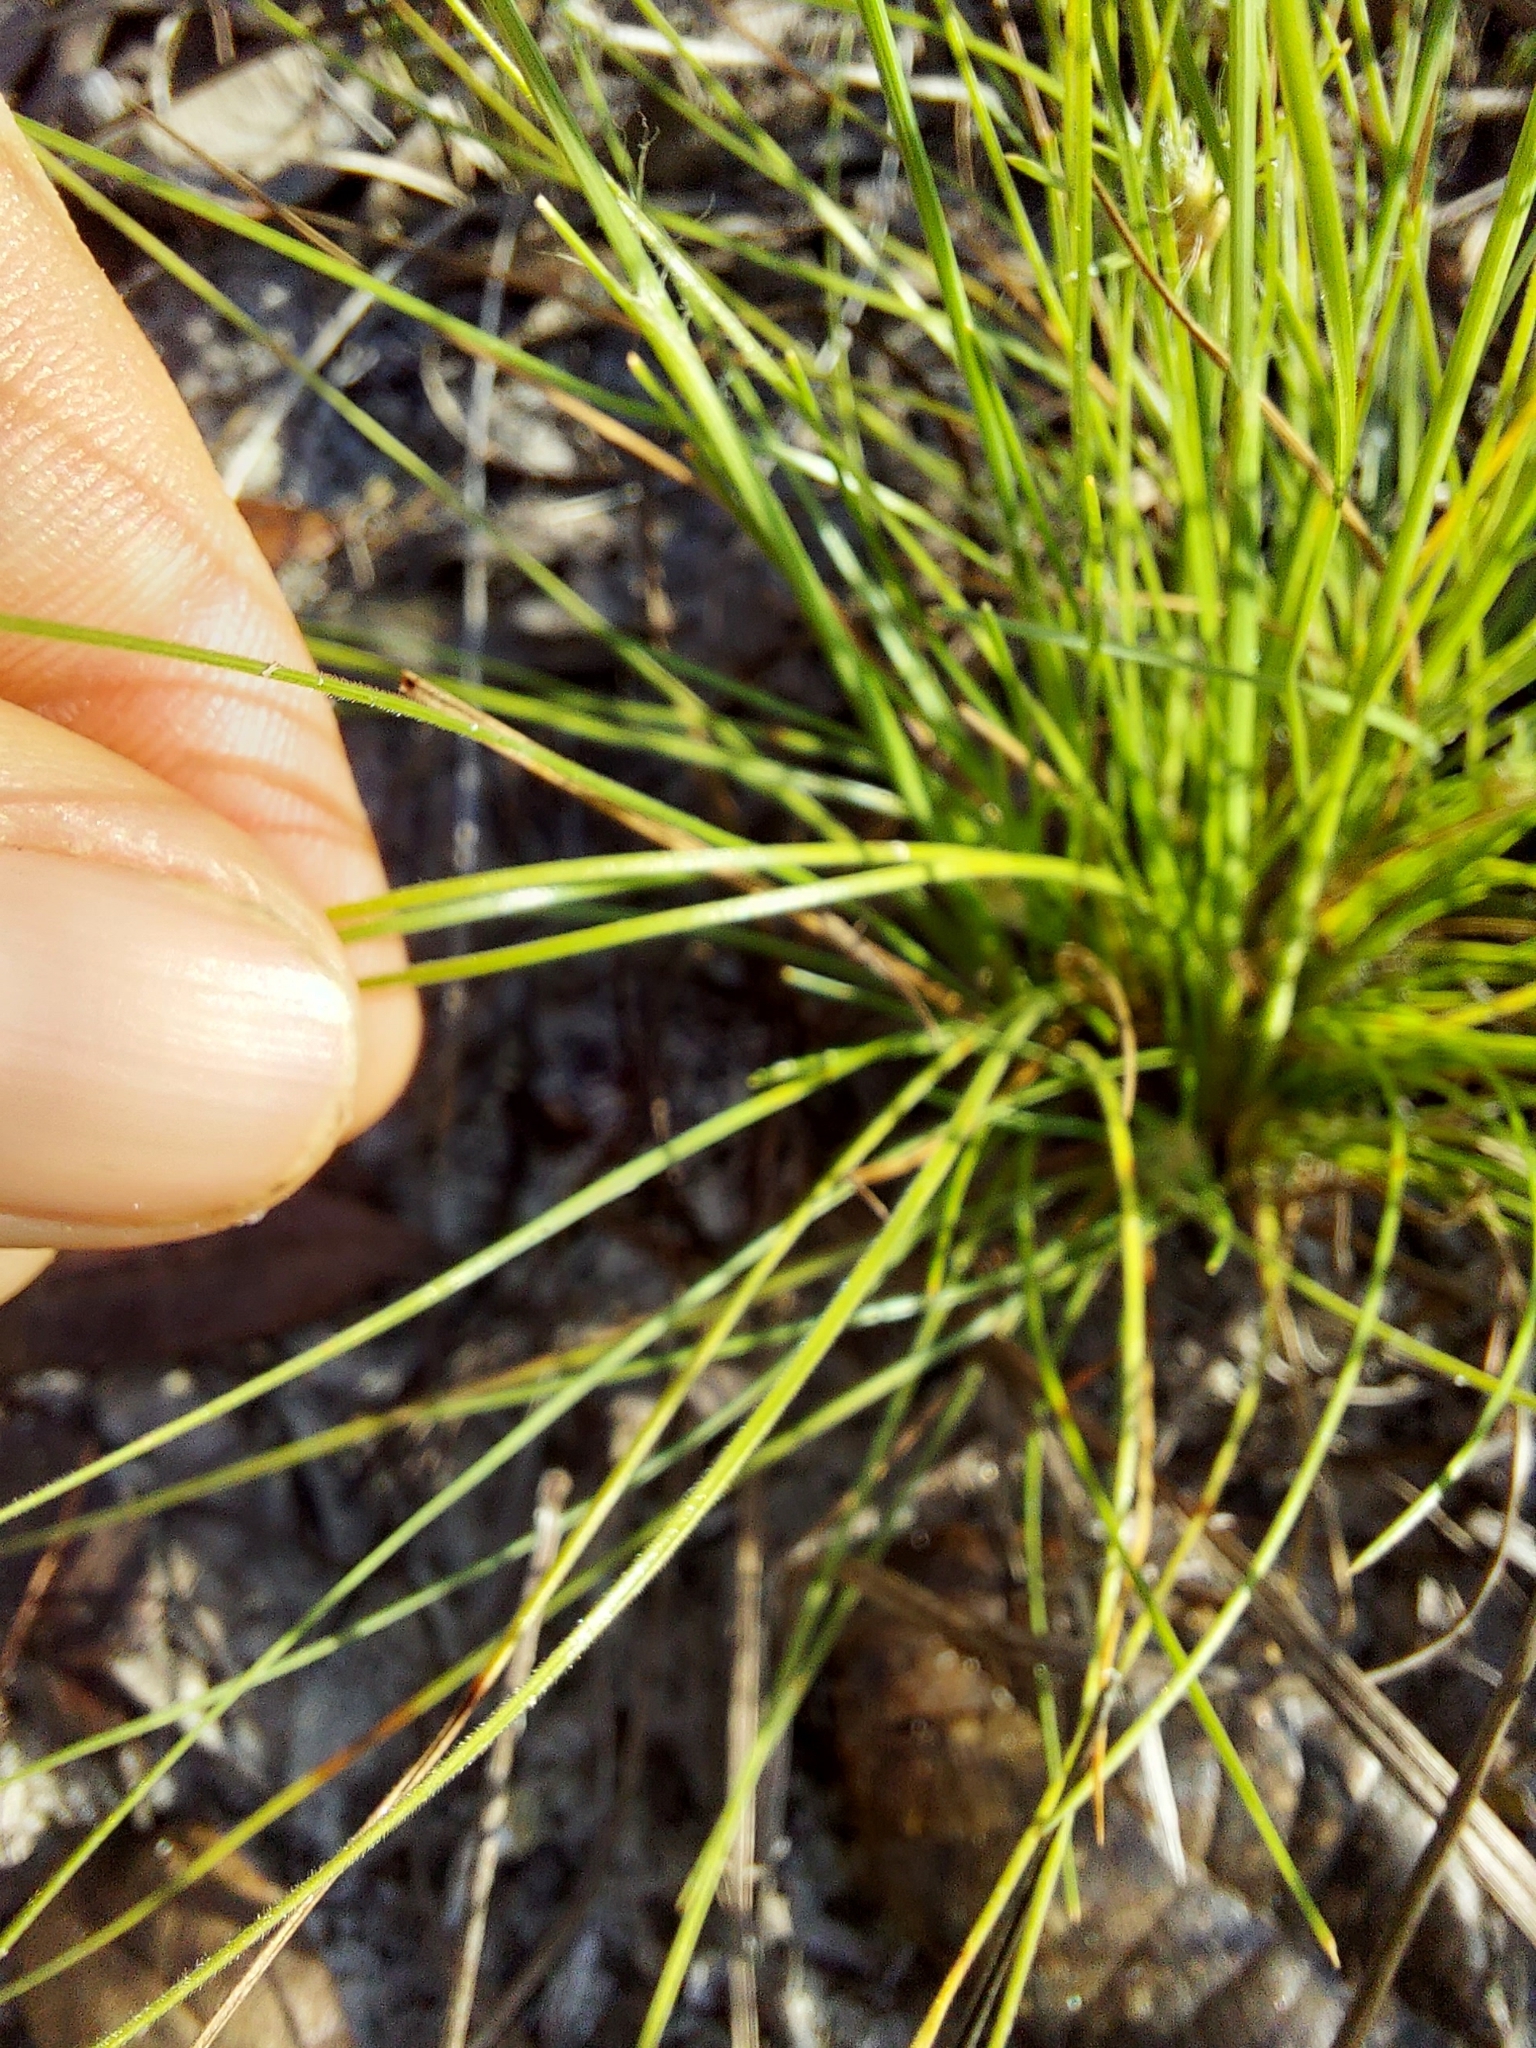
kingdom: Plantae
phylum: Tracheophyta
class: Liliopsida
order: Poales
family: Cyperaceae
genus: Bulbostylis
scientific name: Bulbostylis warei
